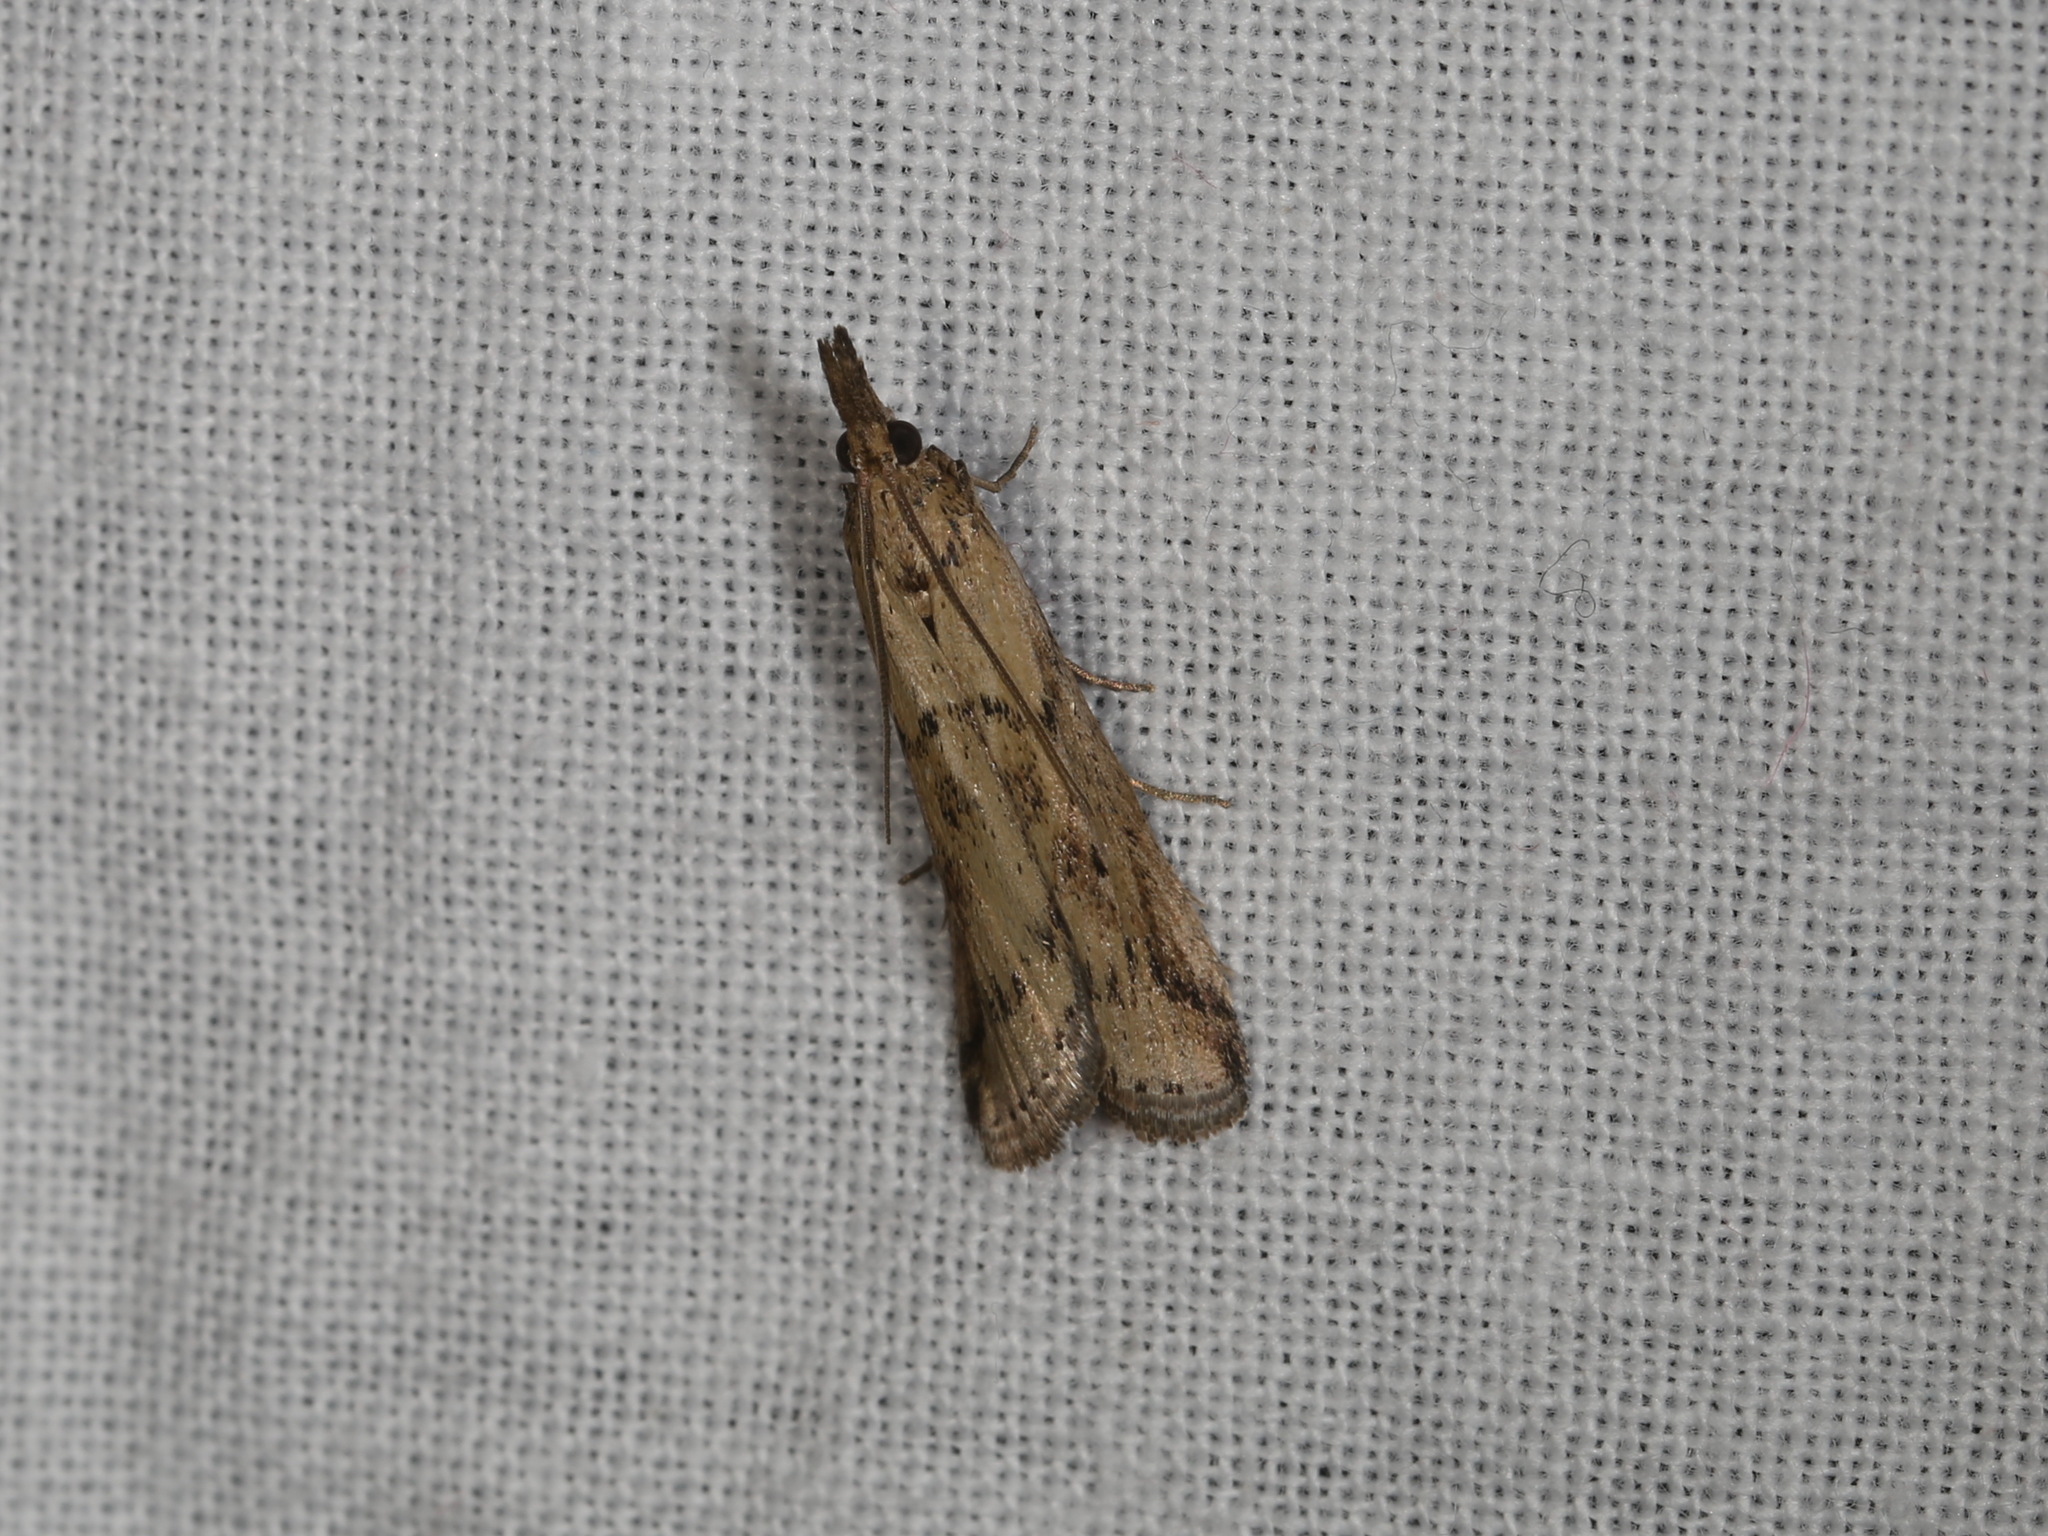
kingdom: Animalia
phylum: Arthropoda
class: Insecta
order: Lepidoptera
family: Pyralidae
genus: Faveria
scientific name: Faveria tritalis
